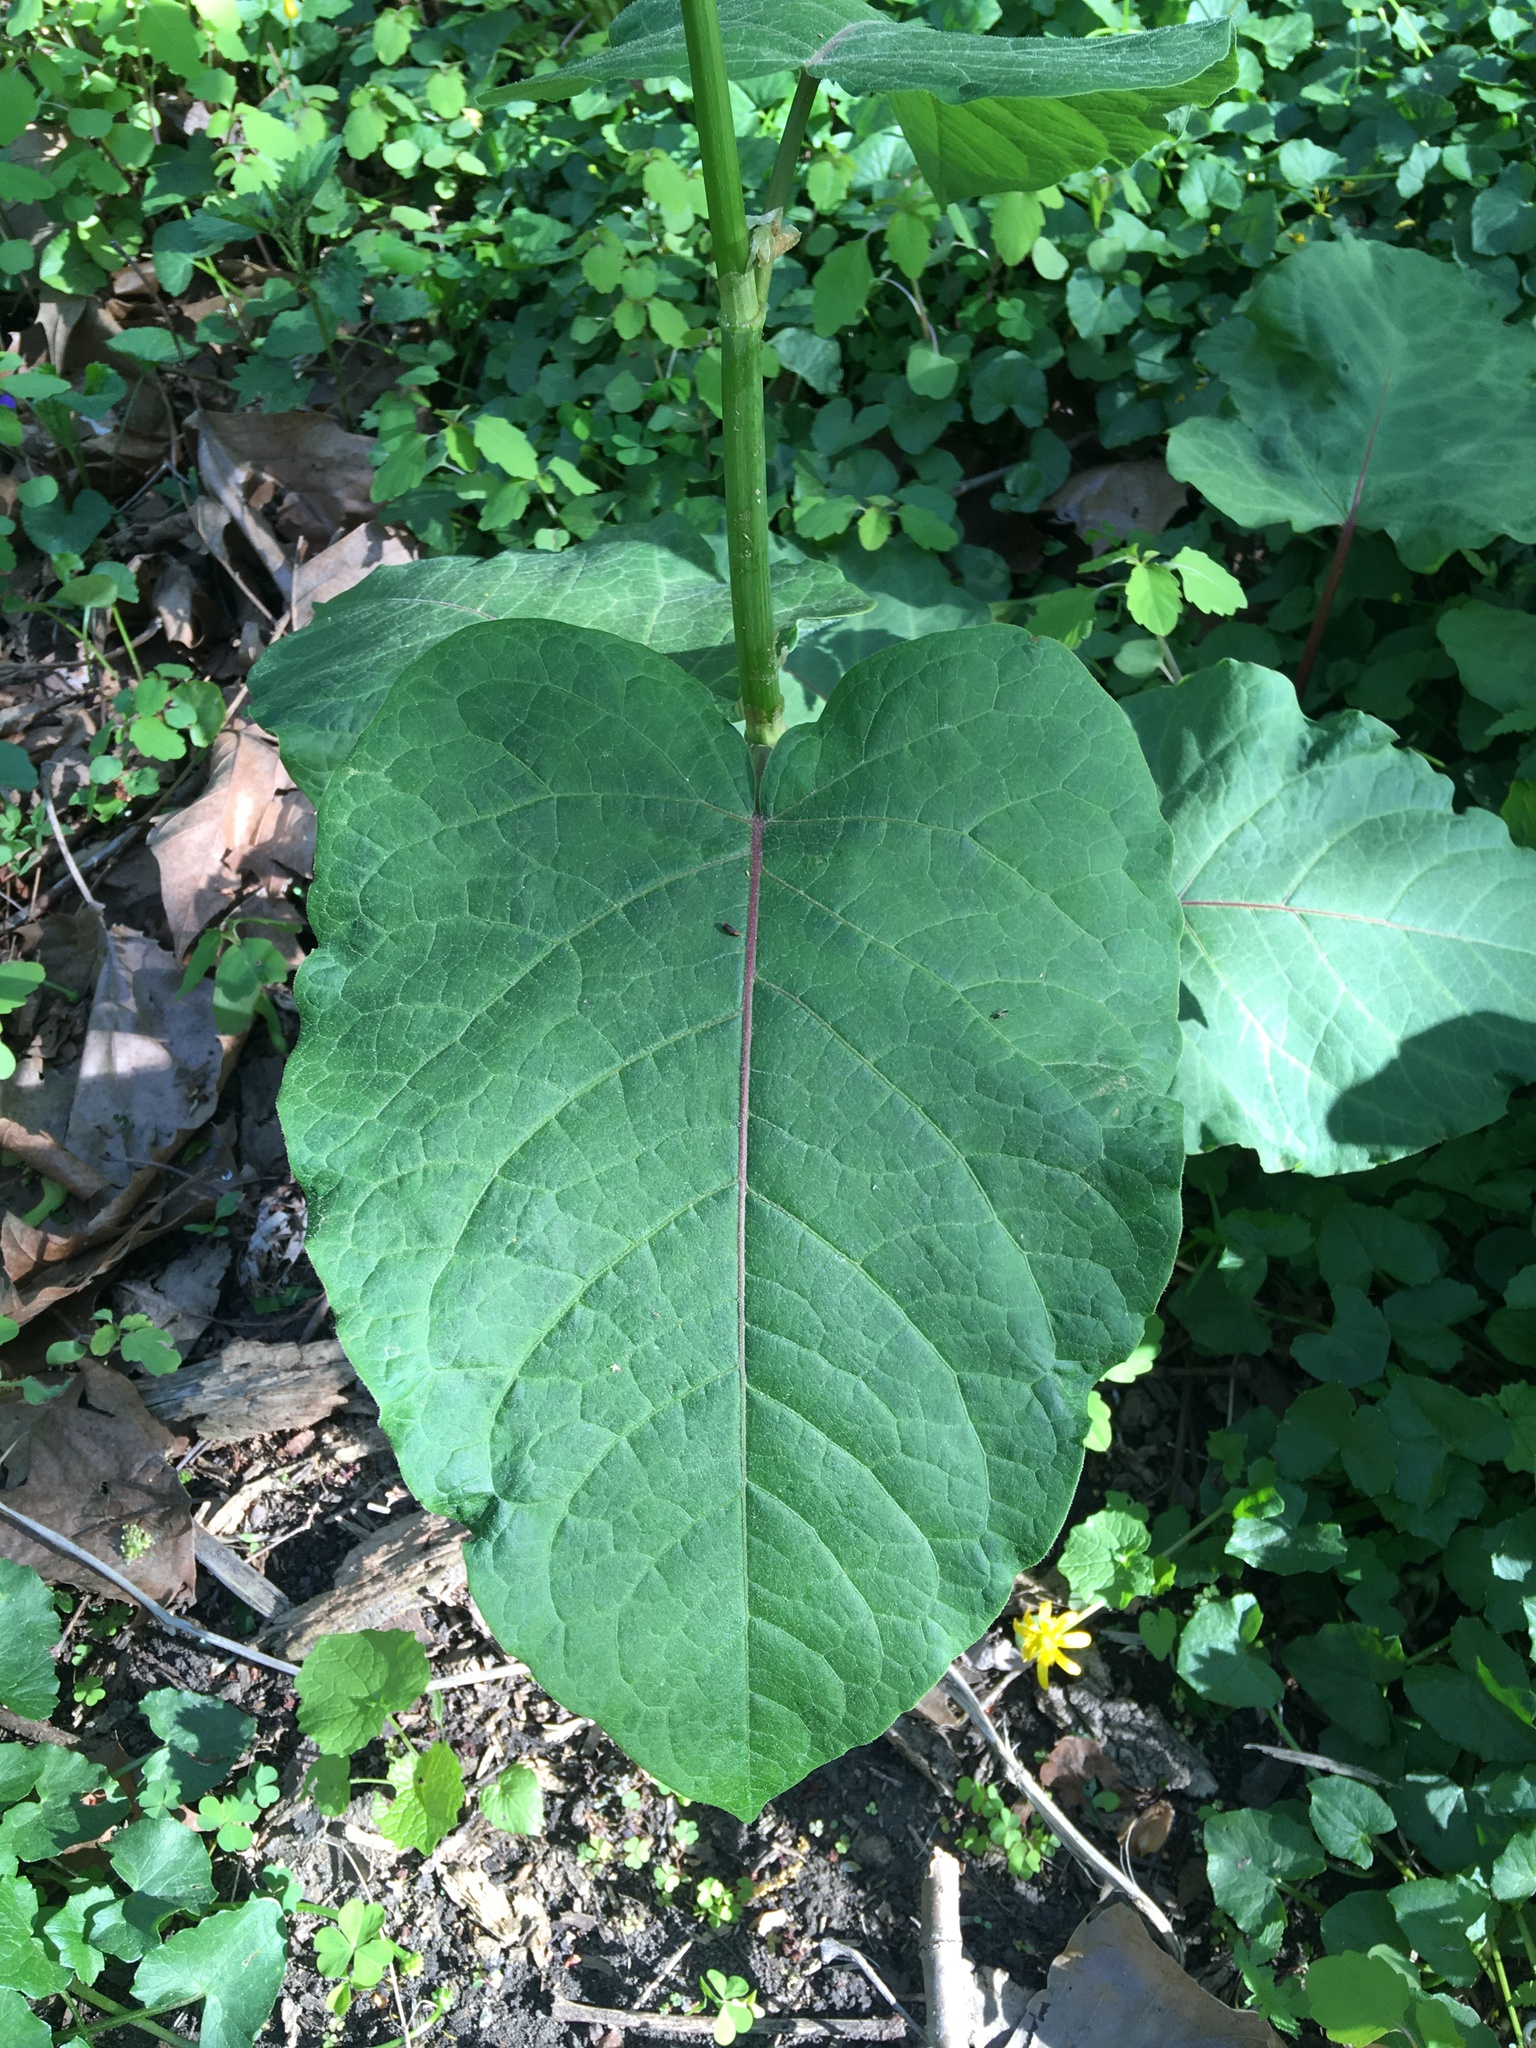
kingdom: Plantae
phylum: Tracheophyta
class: Magnoliopsida
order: Caryophyllales
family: Polygonaceae
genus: Reynoutria
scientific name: Reynoutria sachalinensis
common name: Giant knotweed
